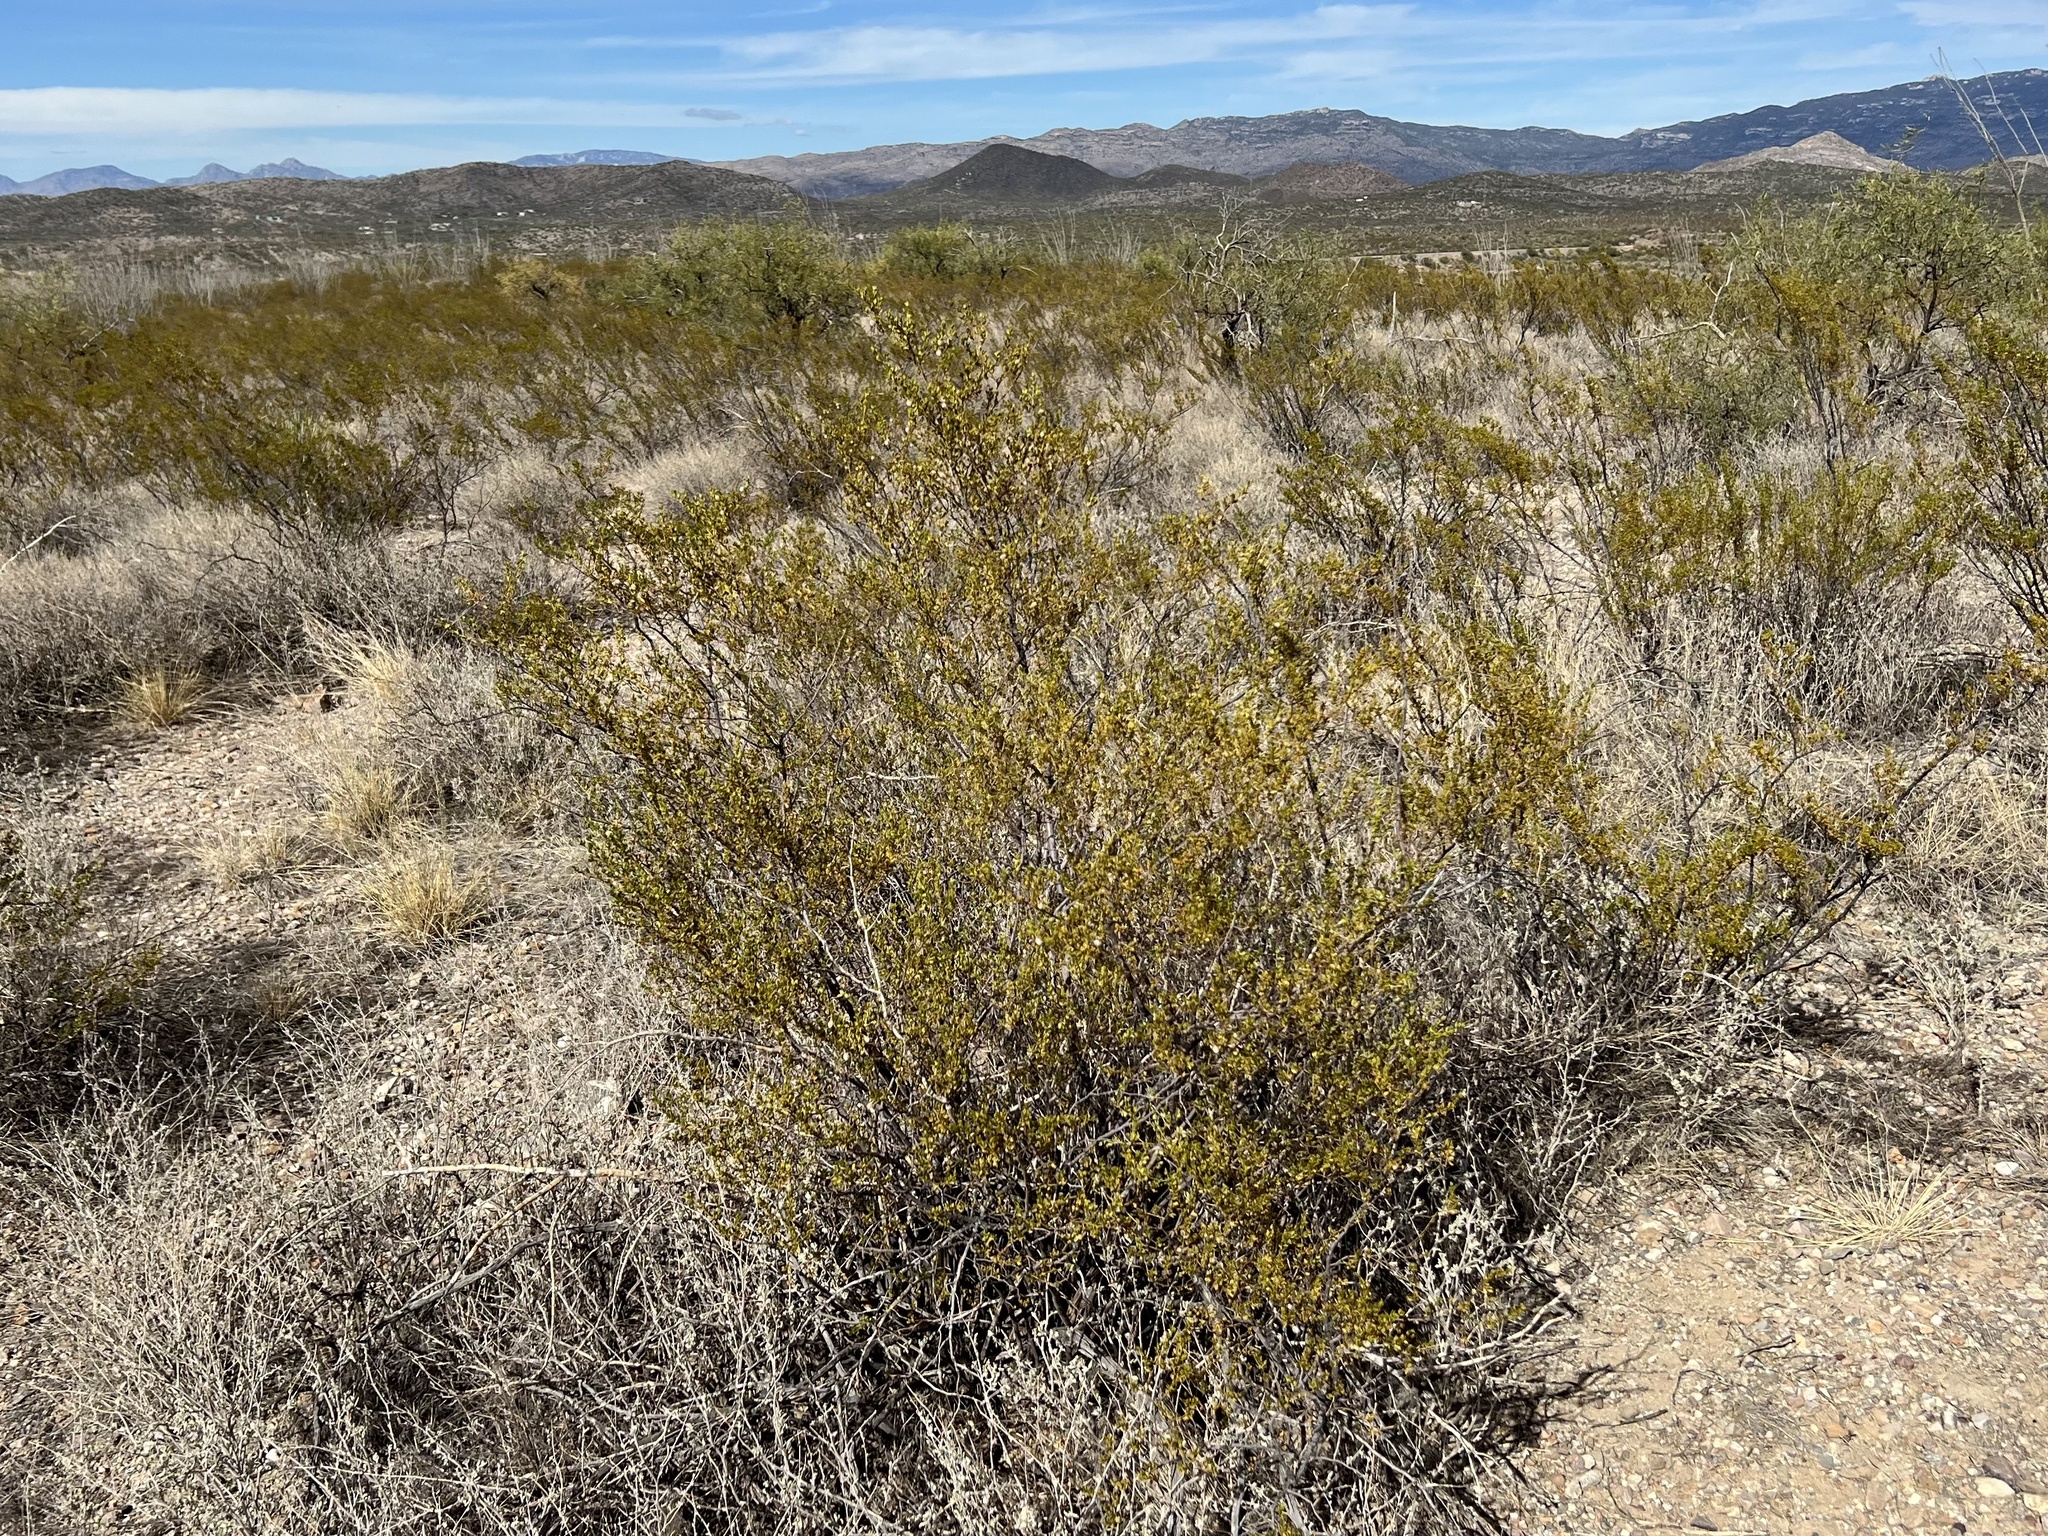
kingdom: Plantae
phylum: Tracheophyta
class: Magnoliopsida
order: Zygophyllales
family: Zygophyllaceae
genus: Larrea
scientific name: Larrea tridentata
